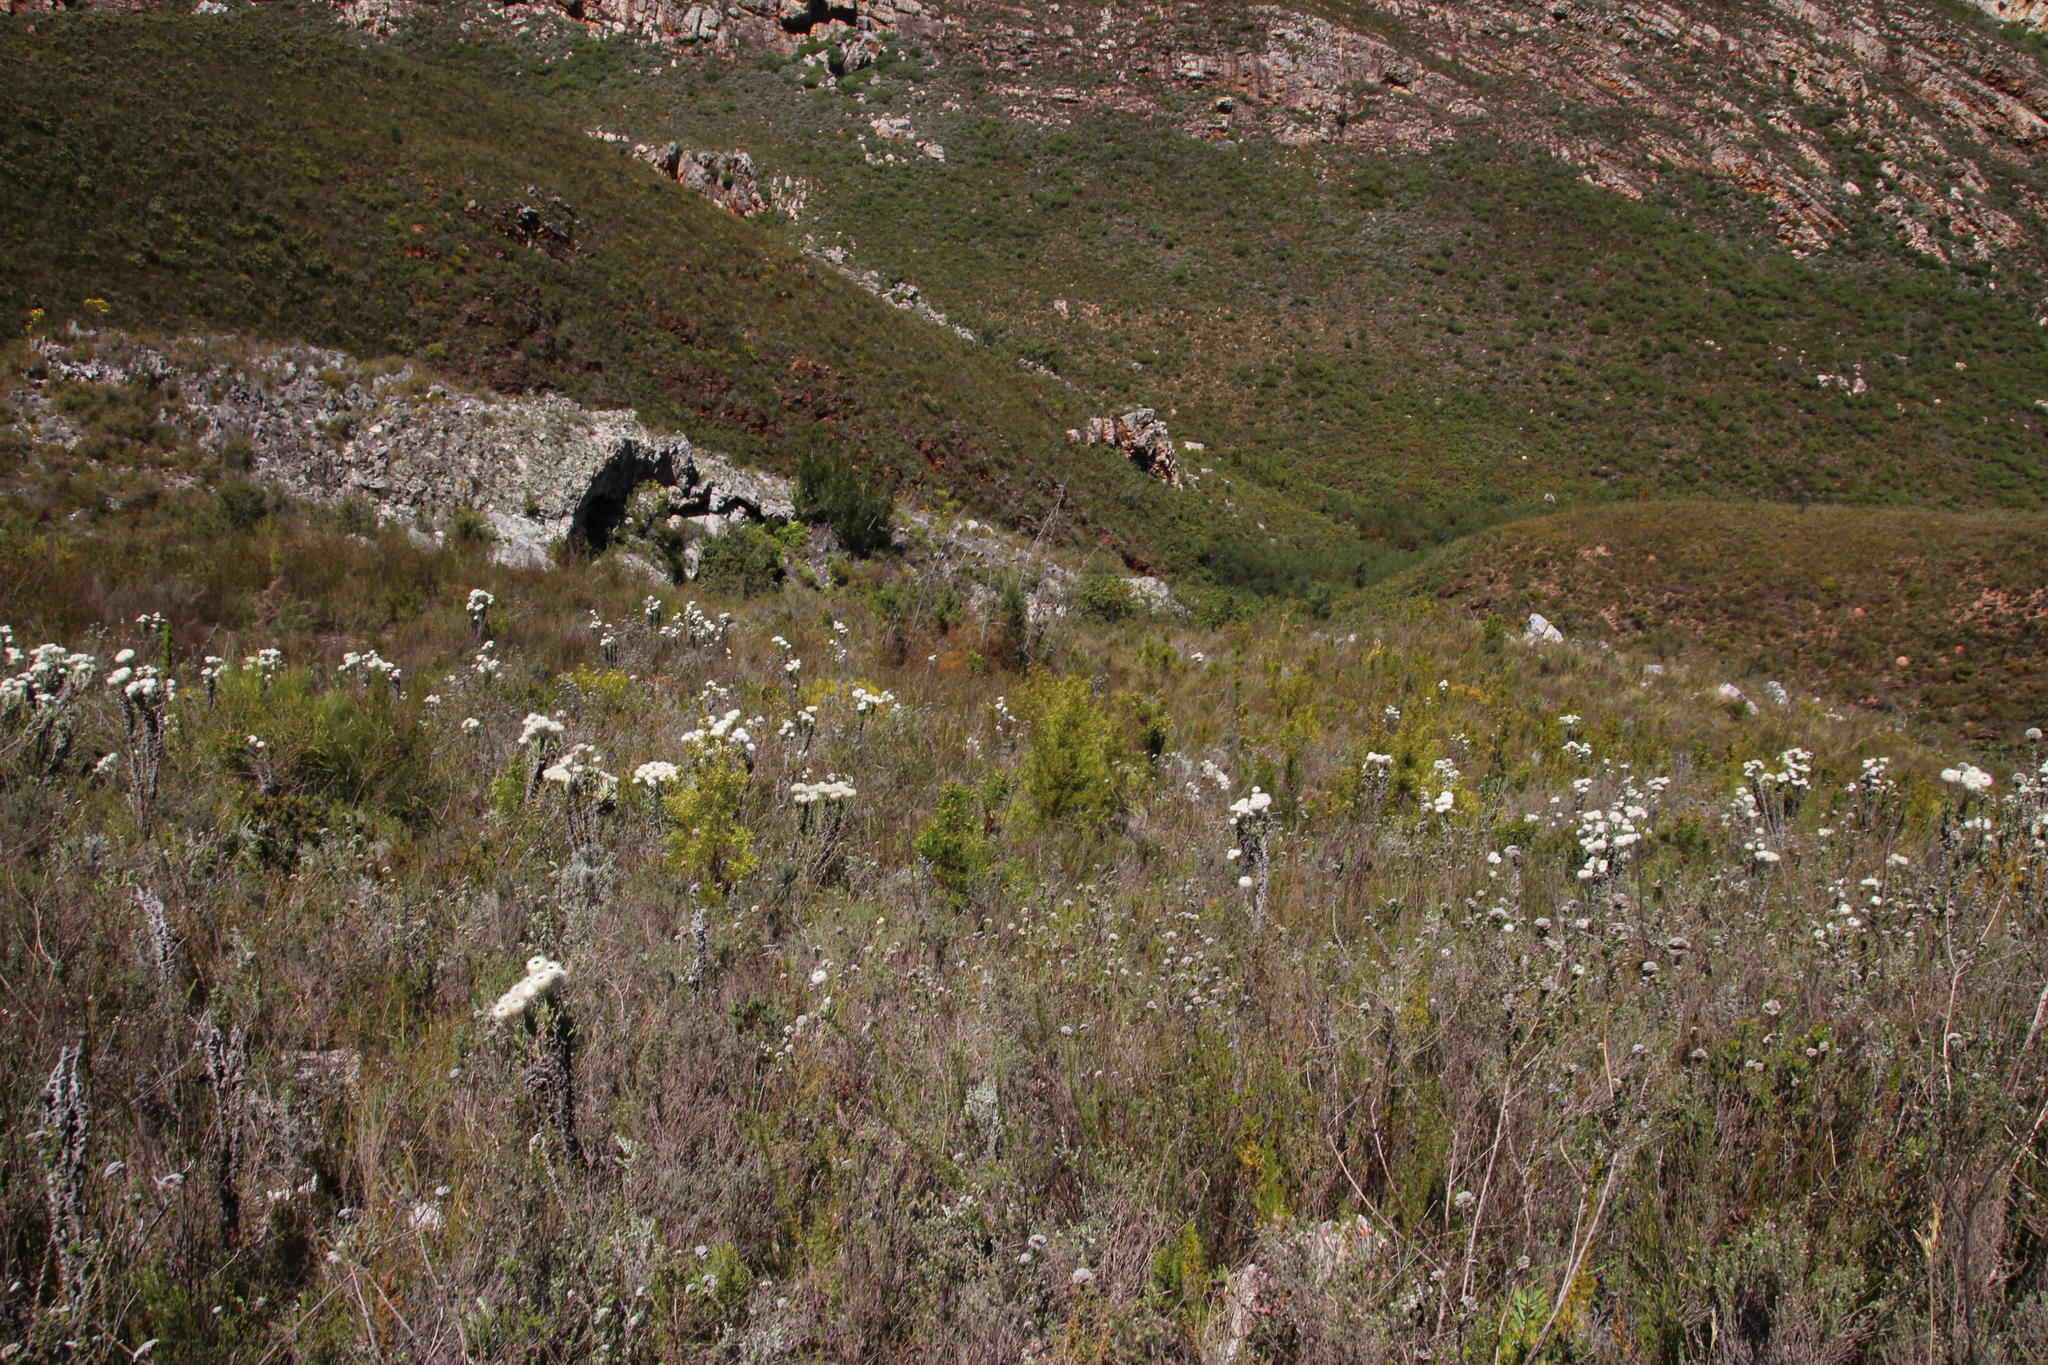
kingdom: Plantae
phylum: Tracheophyta
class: Magnoliopsida
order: Proteales
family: Proteaceae
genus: Leucadendron
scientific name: Leucadendron salicifolium
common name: Common stream conebush
